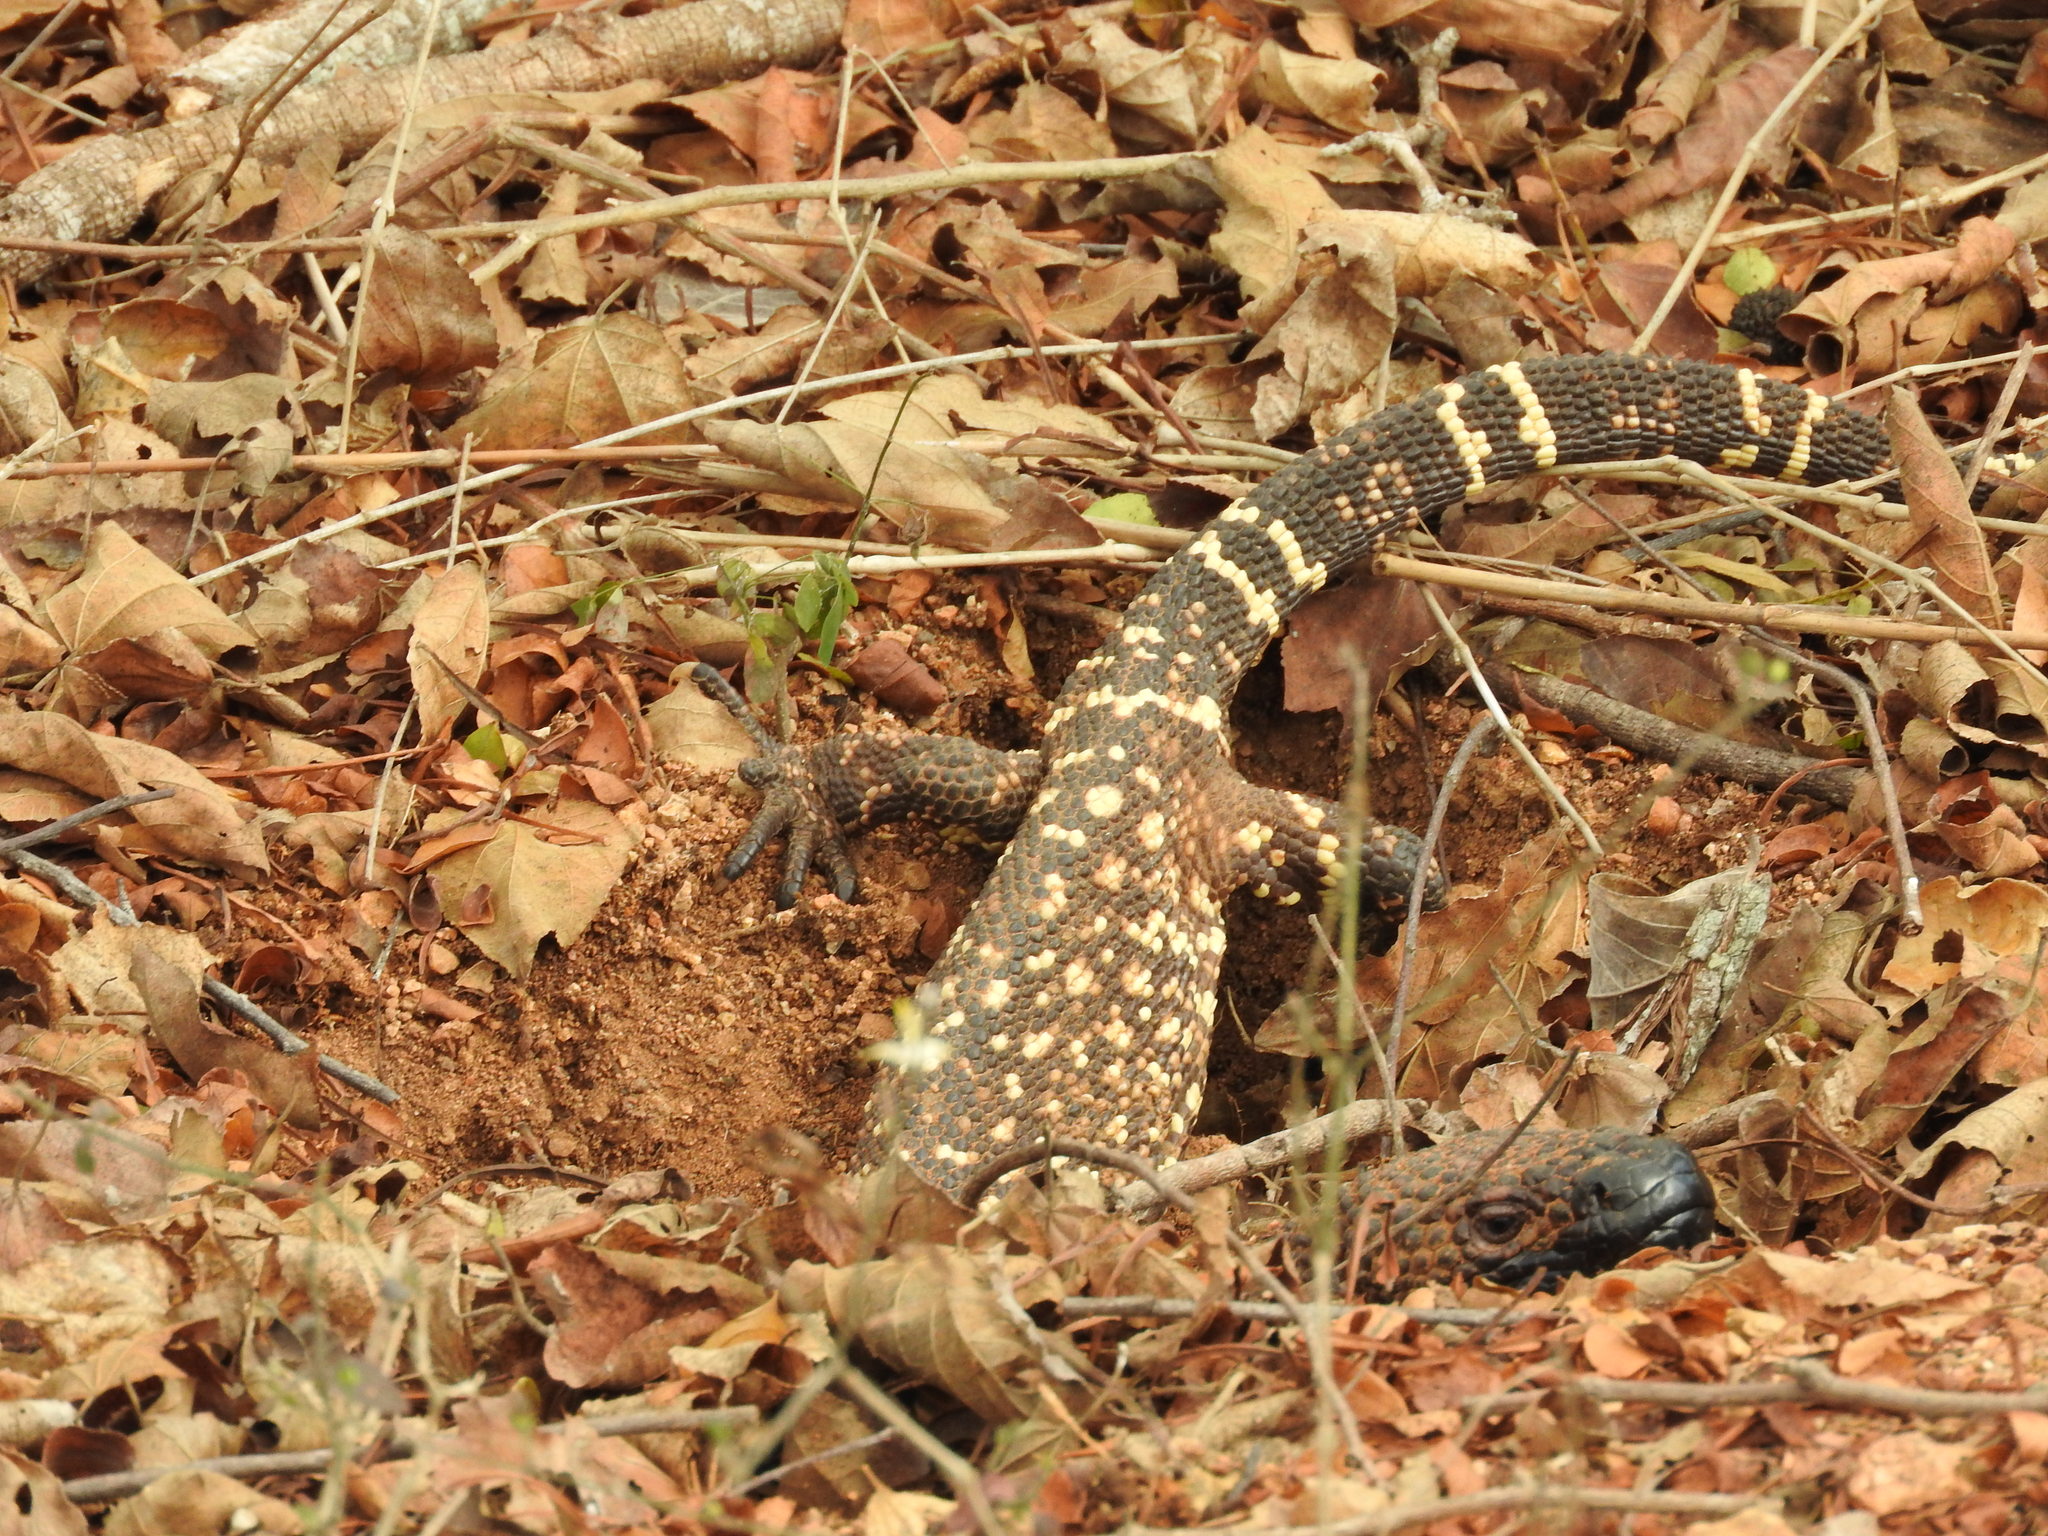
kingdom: Animalia
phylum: Chordata
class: Squamata
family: Helodermatidae
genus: Heloderma
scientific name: Heloderma horridum
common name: Mexican beaded lizard
